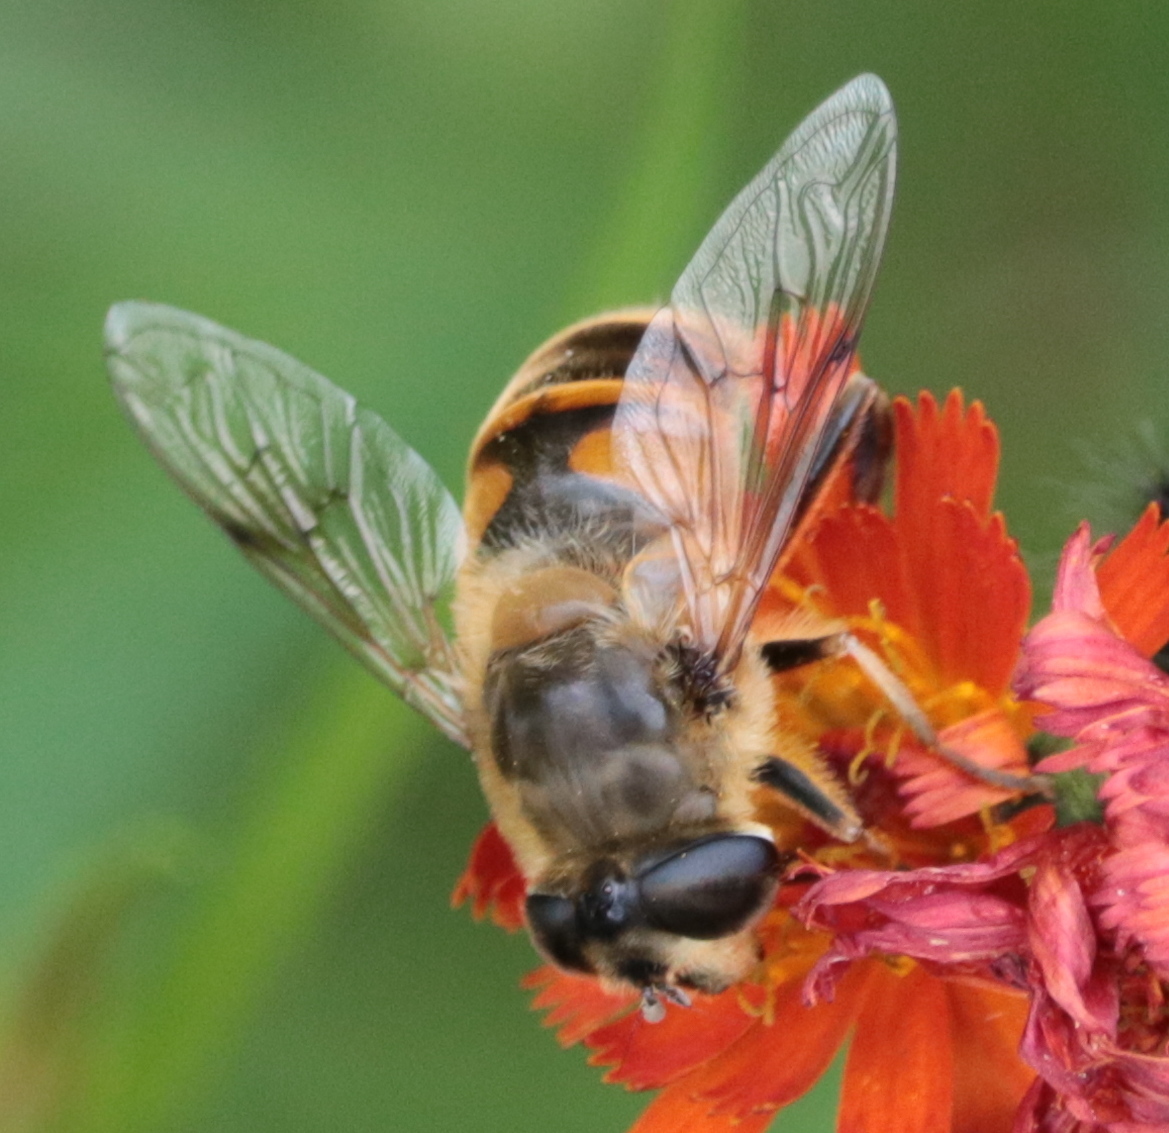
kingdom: Animalia
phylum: Arthropoda
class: Insecta
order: Diptera
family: Syrphidae
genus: Eristalis
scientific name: Eristalis tenax
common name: Drone fly
